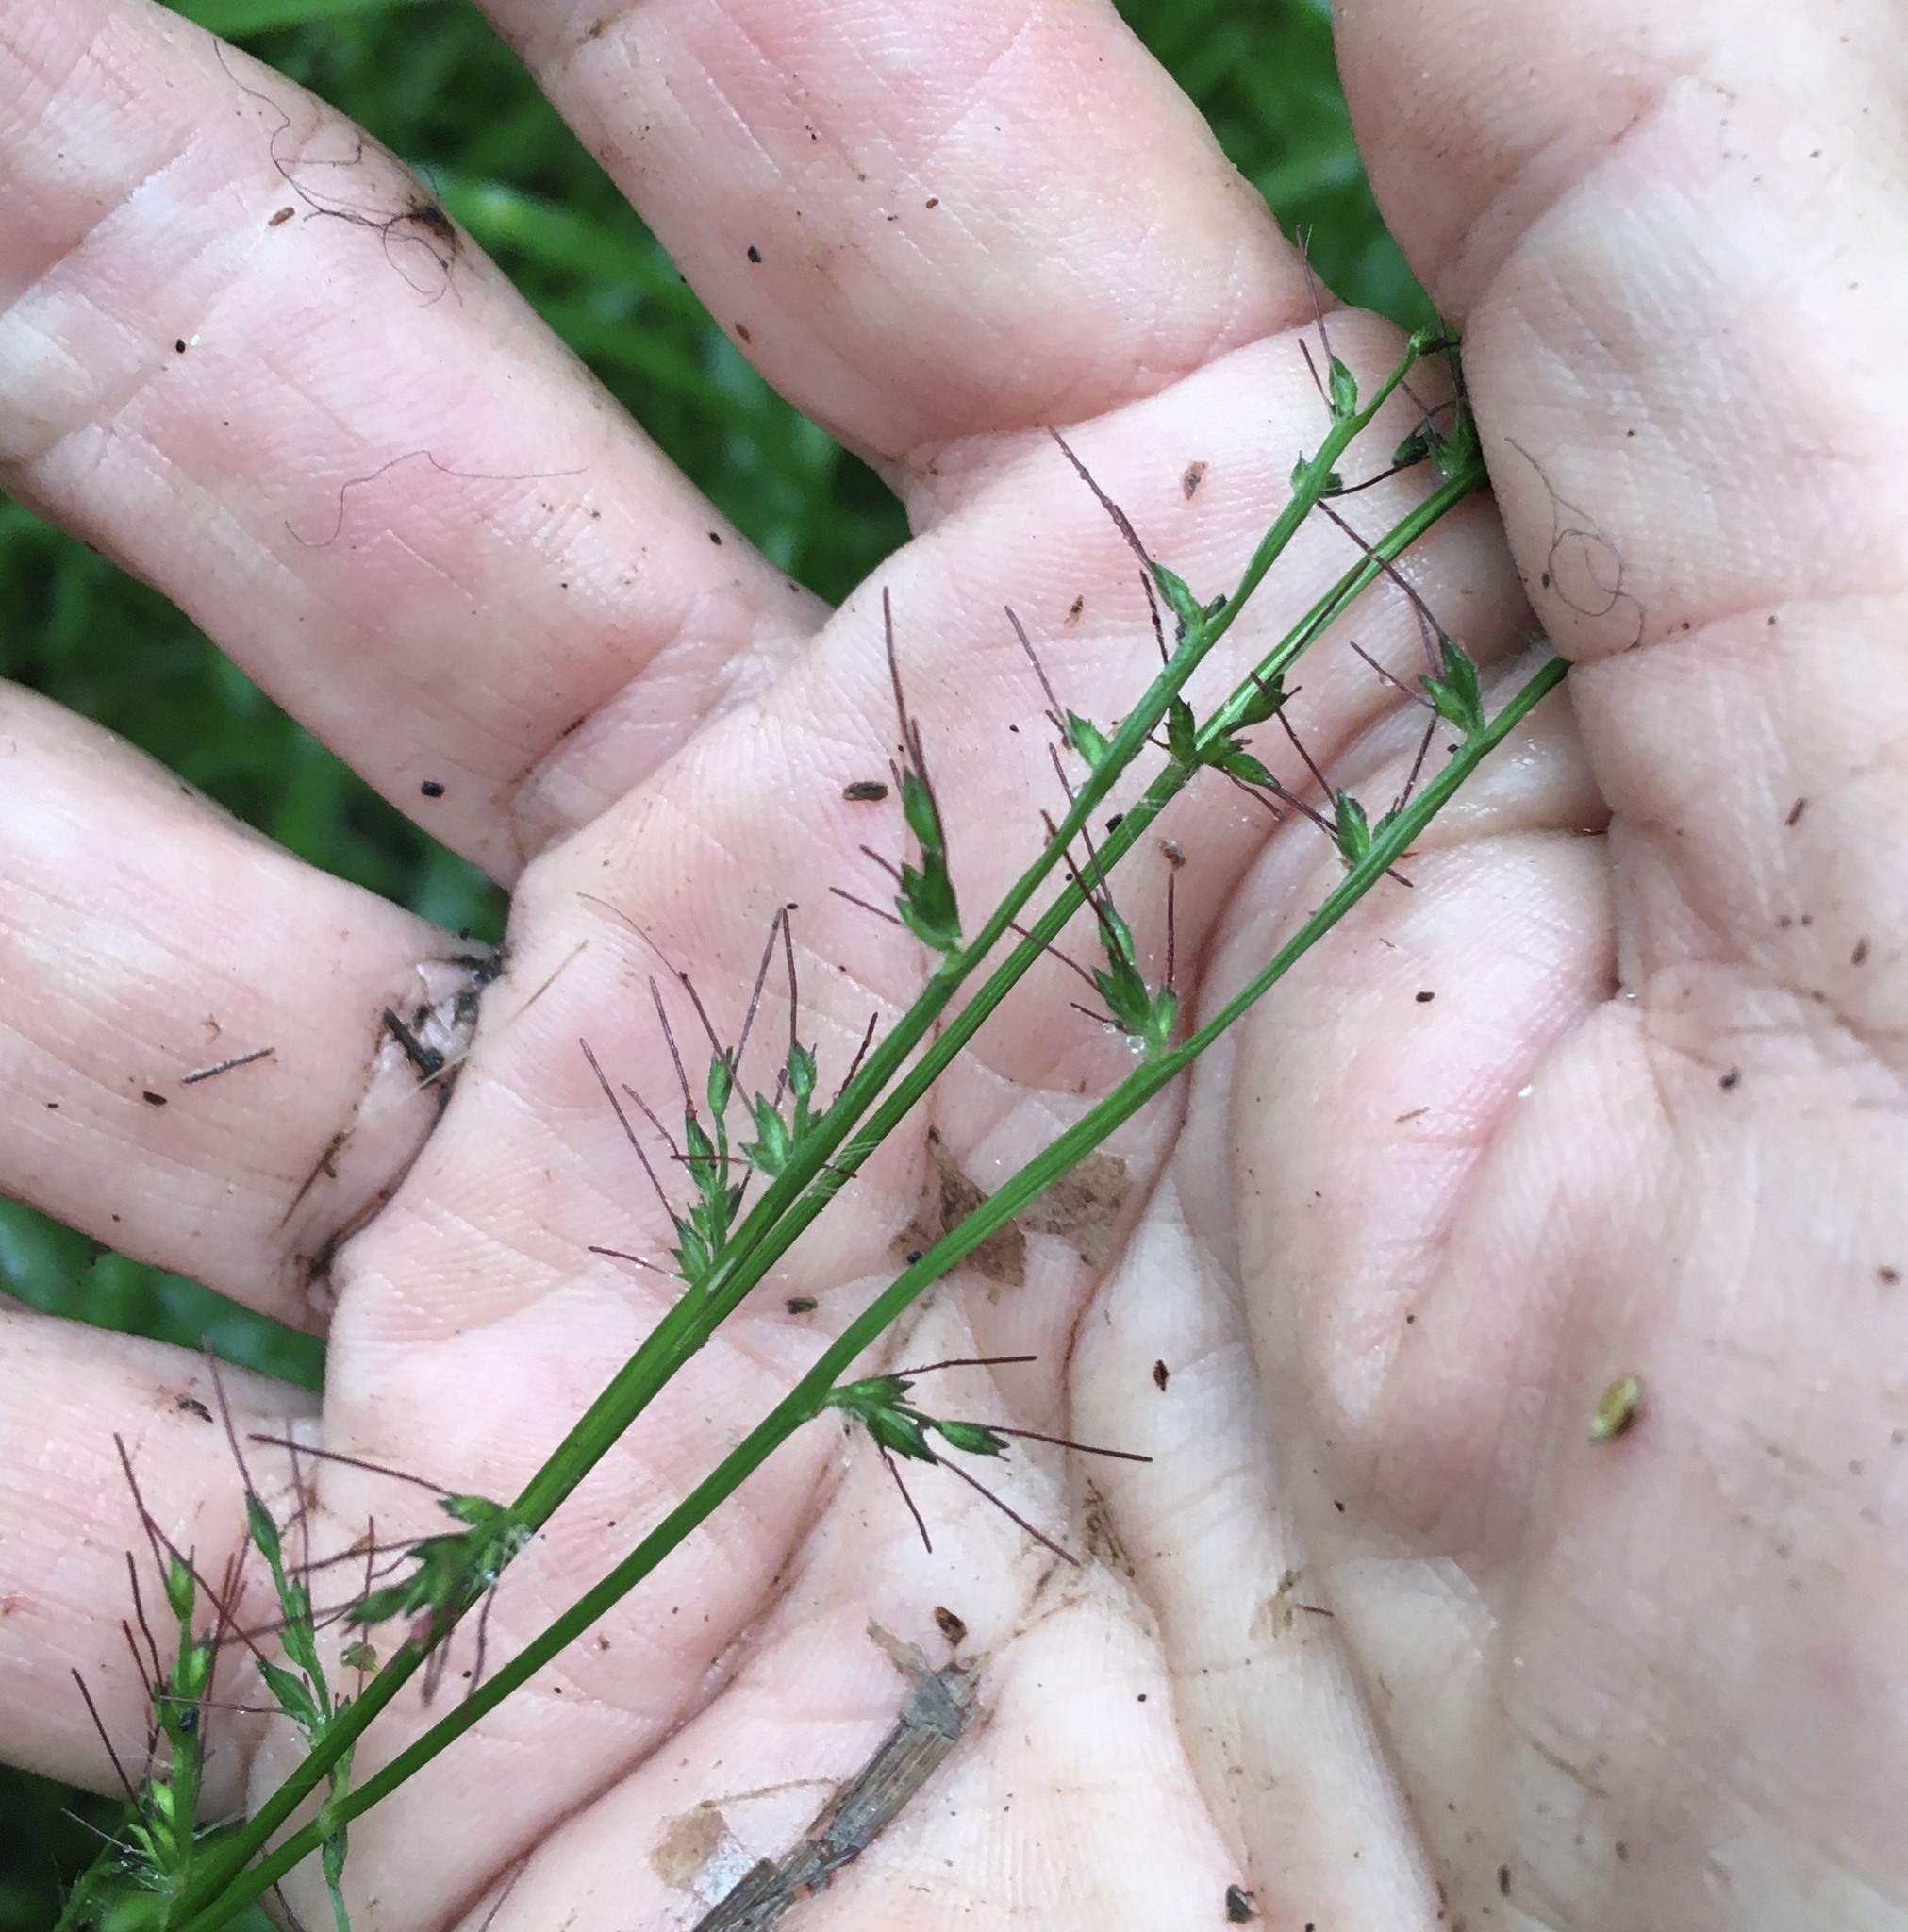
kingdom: Plantae
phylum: Tracheophyta
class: Liliopsida
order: Poales
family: Poaceae
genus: Oplismenus
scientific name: Oplismenus hirtellus
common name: Basketgrass
